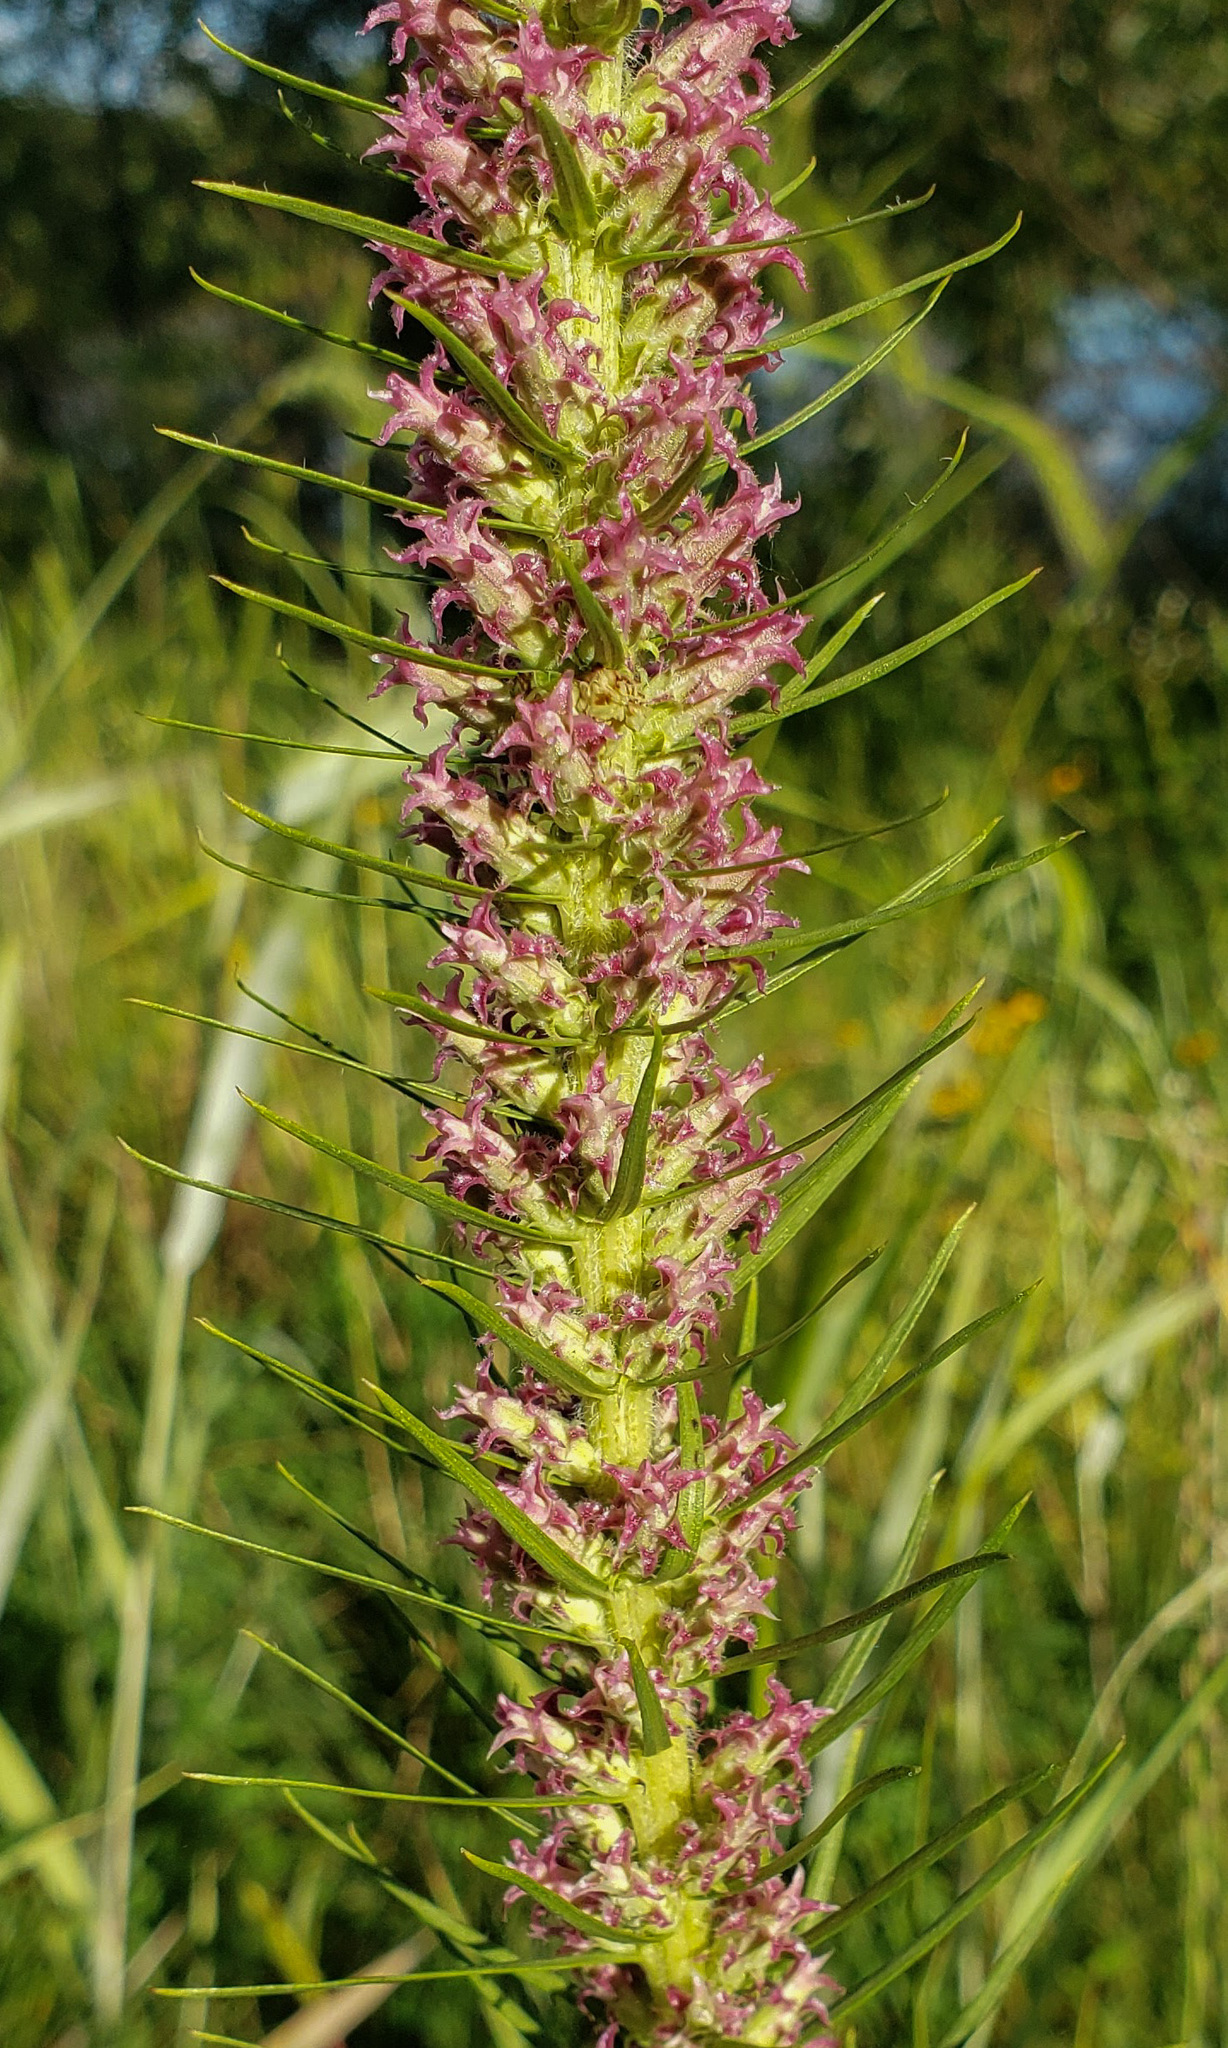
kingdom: Plantae
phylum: Tracheophyta
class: Magnoliopsida
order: Asterales
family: Asteraceae
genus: Liatris
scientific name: Liatris pycnostachya
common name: Cattail gayfeather
